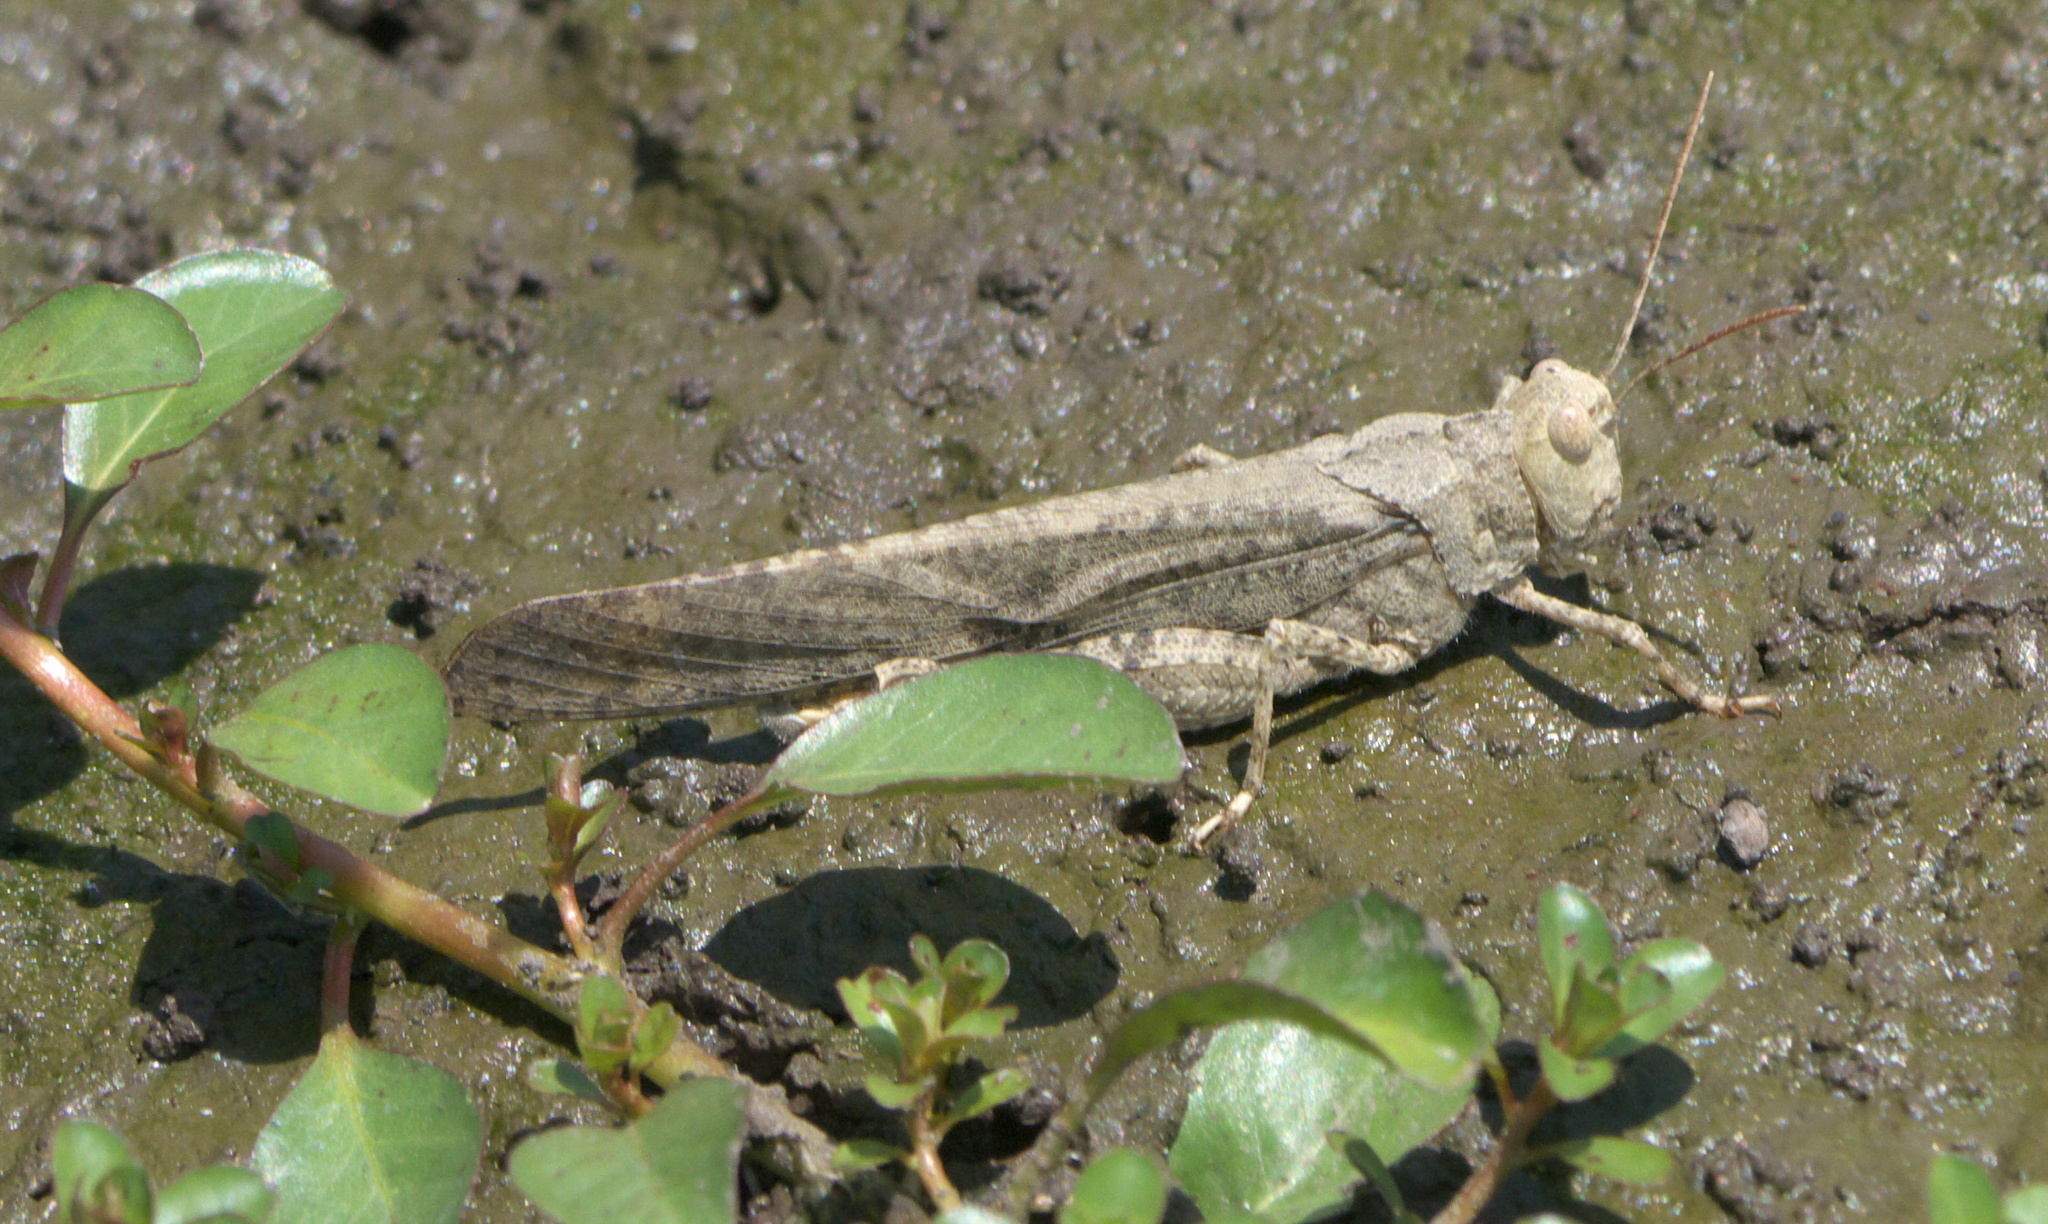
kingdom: Animalia
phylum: Arthropoda
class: Insecta
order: Orthoptera
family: Acrididae
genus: Dissosteira
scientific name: Dissosteira carolina
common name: Carolina grasshopper
